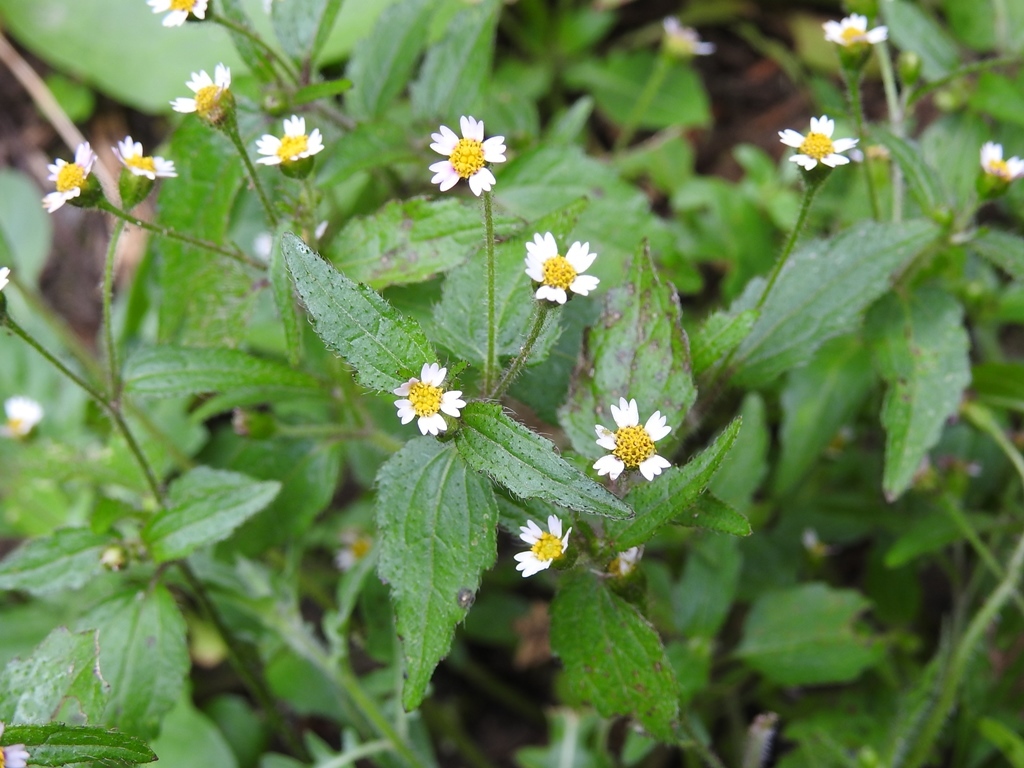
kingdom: Plantae
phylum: Tracheophyta
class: Magnoliopsida
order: Asterales
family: Asteraceae
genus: Galinsoga
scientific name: Galinsoga quadriradiata
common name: Shaggy soldier
